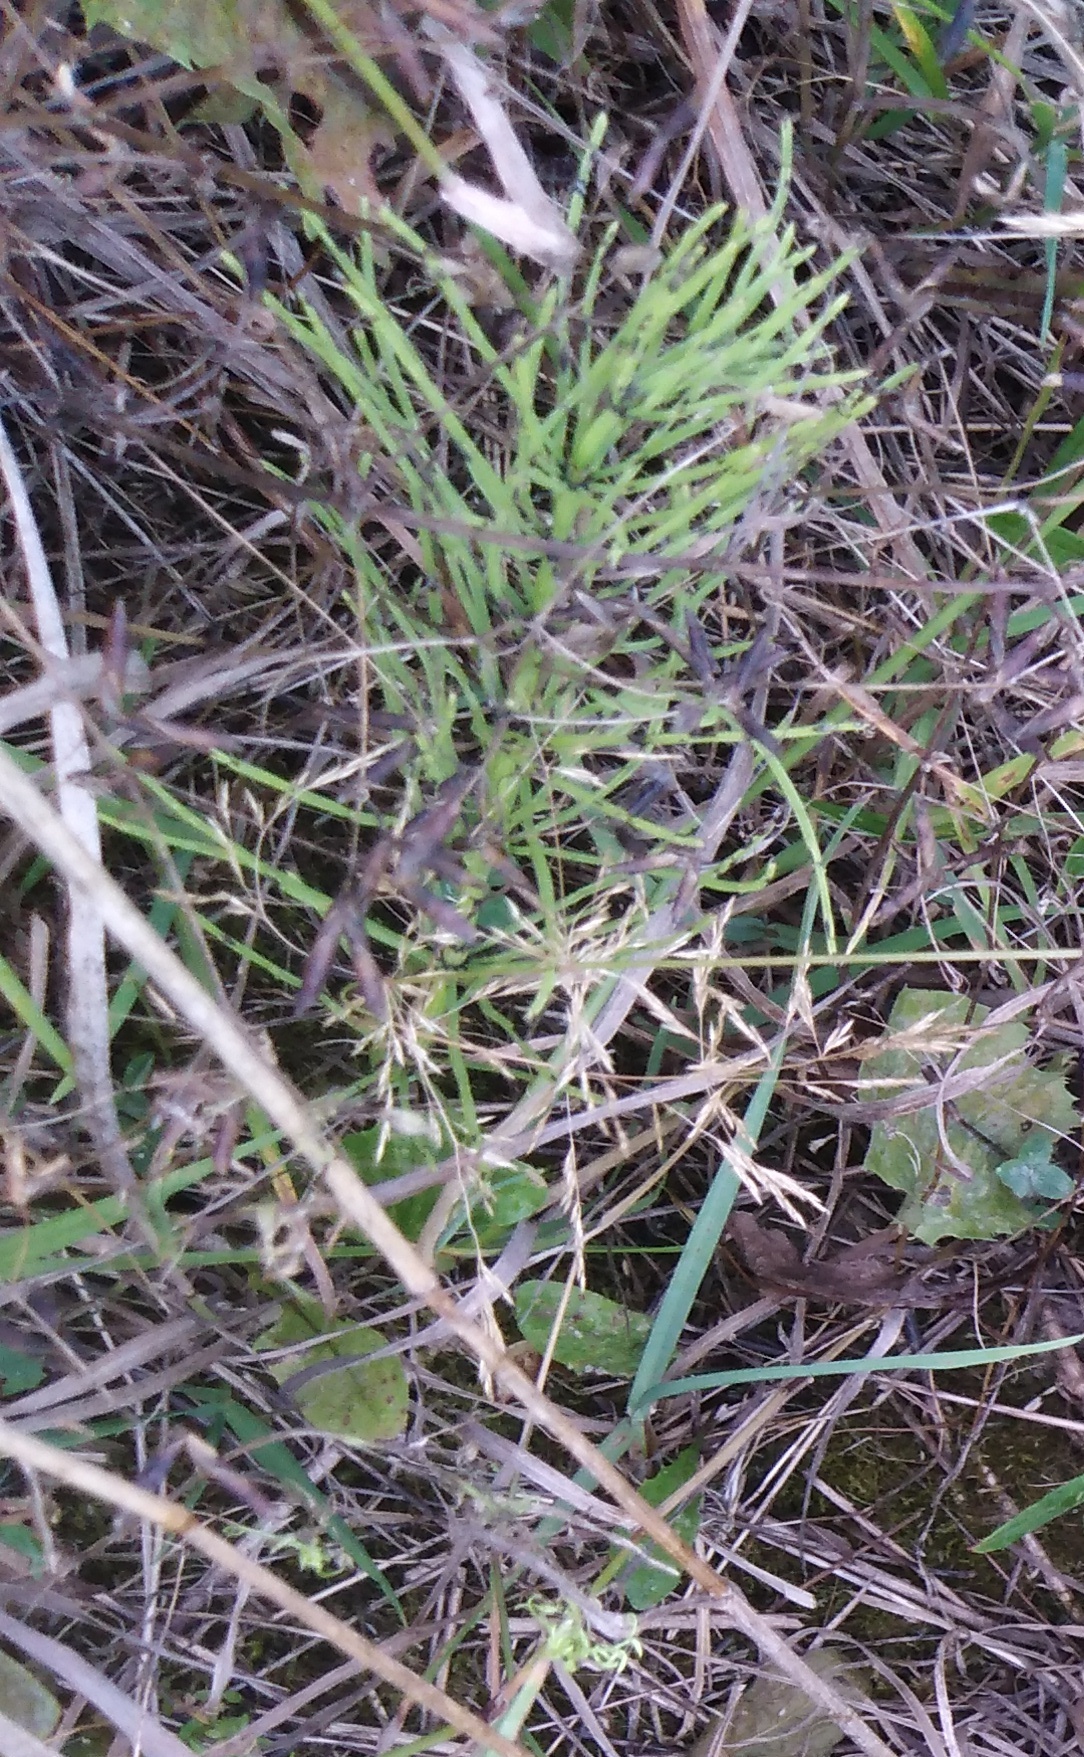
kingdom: Plantae
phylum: Tracheophyta
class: Polypodiopsida
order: Equisetales
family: Equisetaceae
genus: Equisetum
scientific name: Equisetum arvense
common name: Field horsetail
